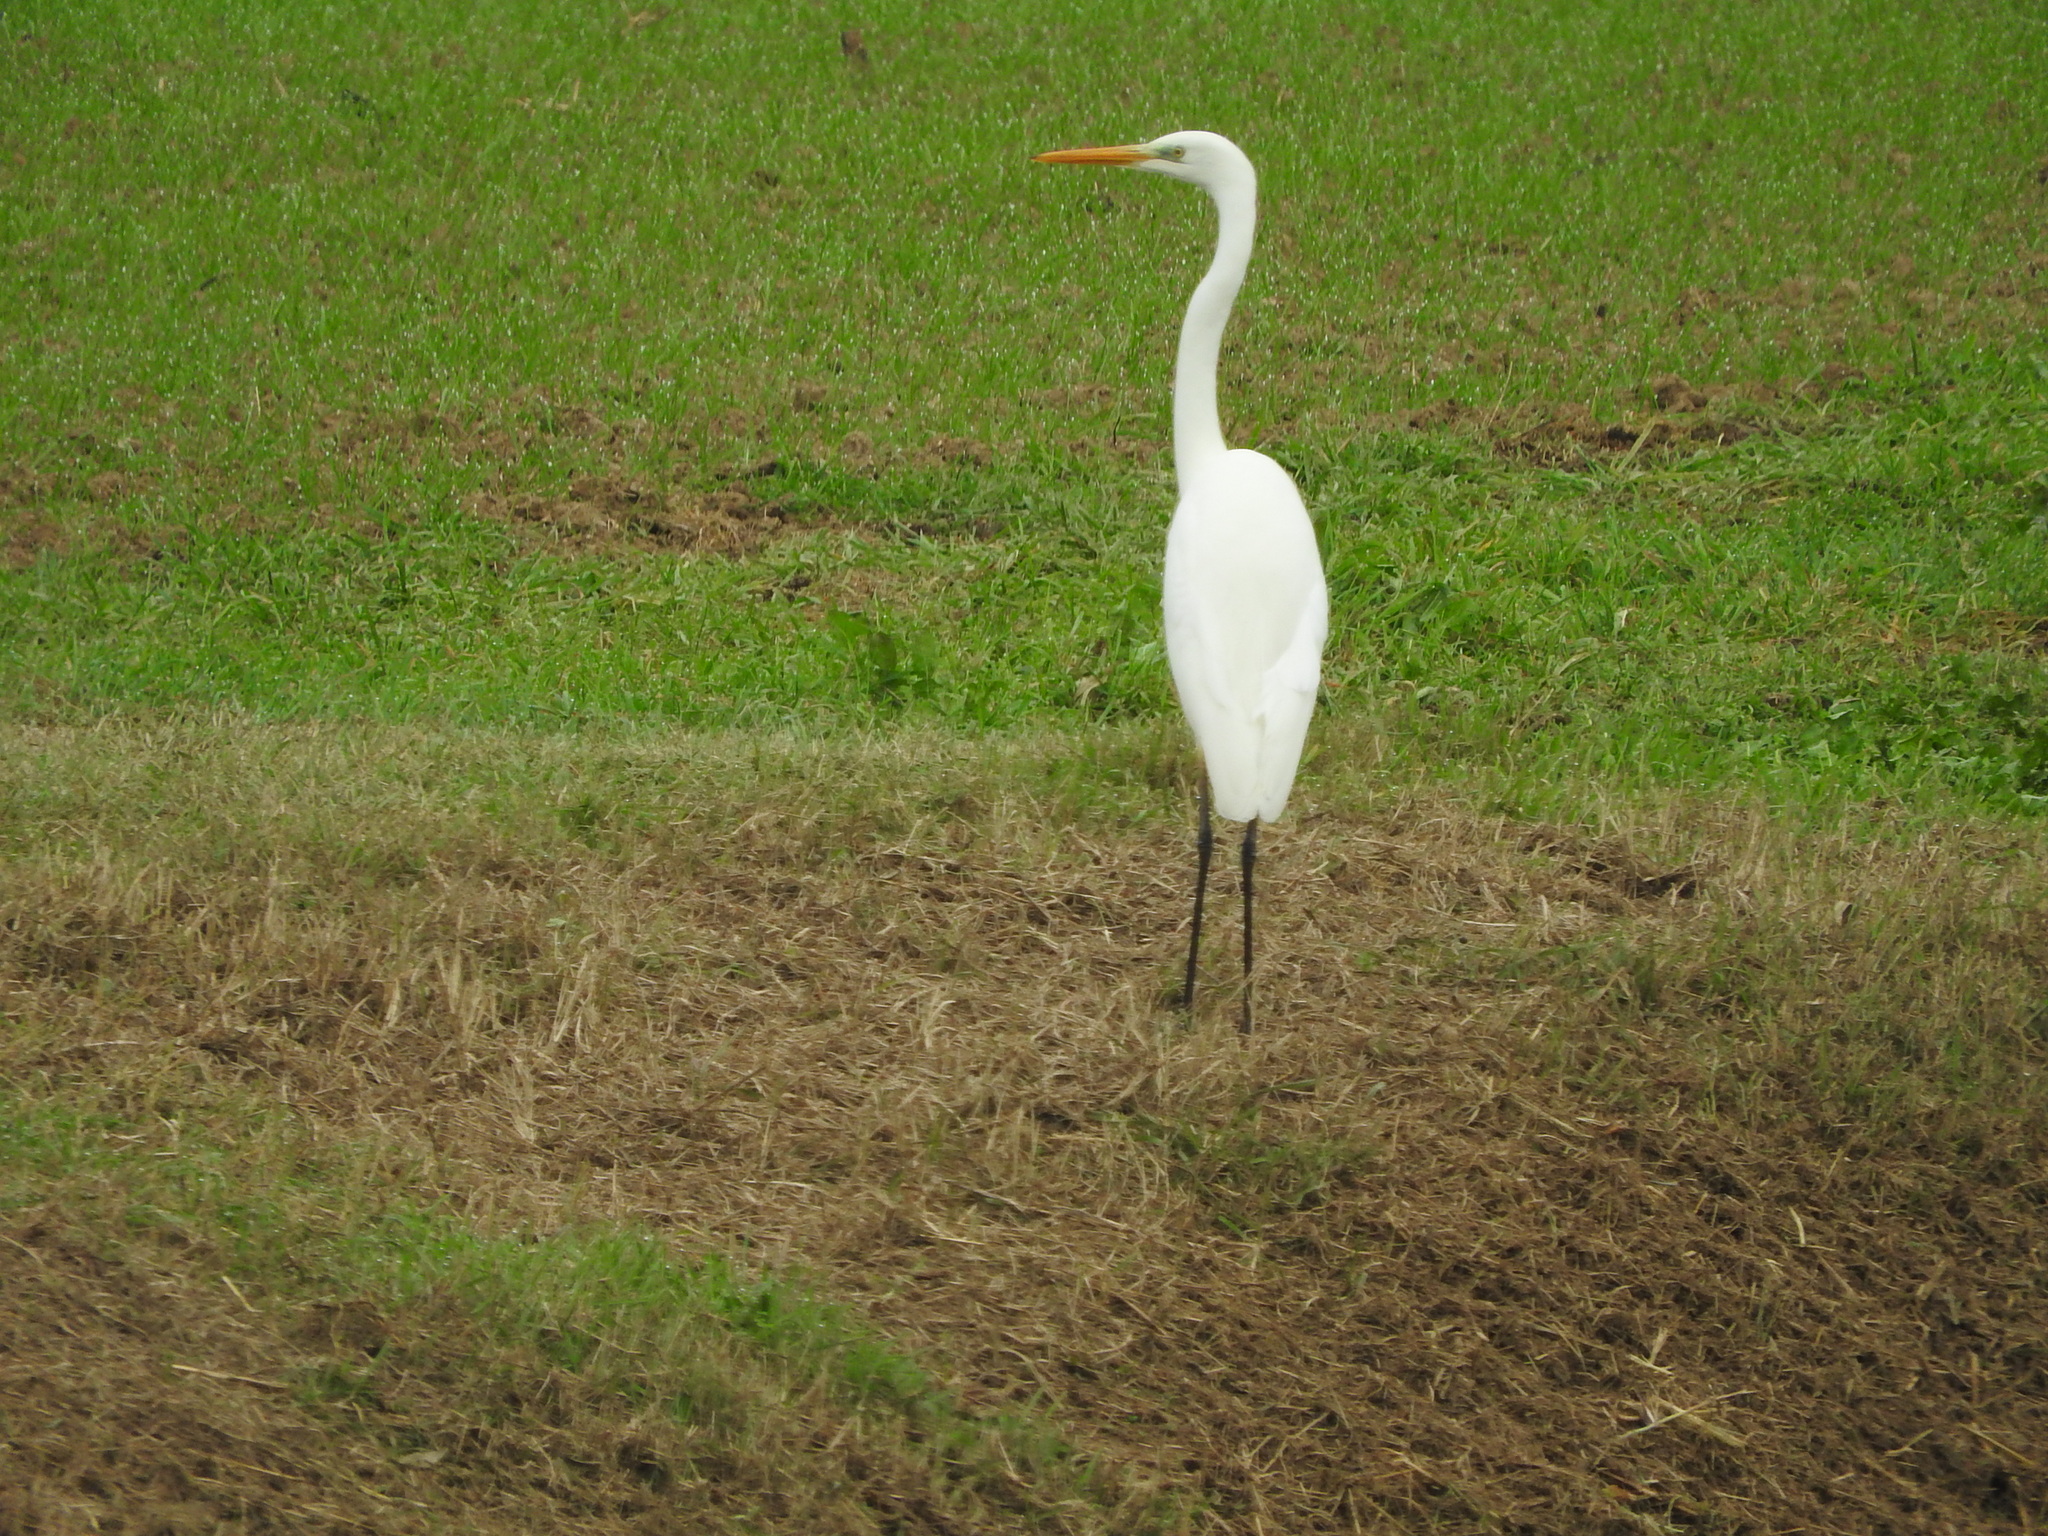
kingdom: Animalia
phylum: Chordata
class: Aves
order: Pelecaniformes
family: Ardeidae
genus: Ardea
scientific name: Ardea alba
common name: Great egret
